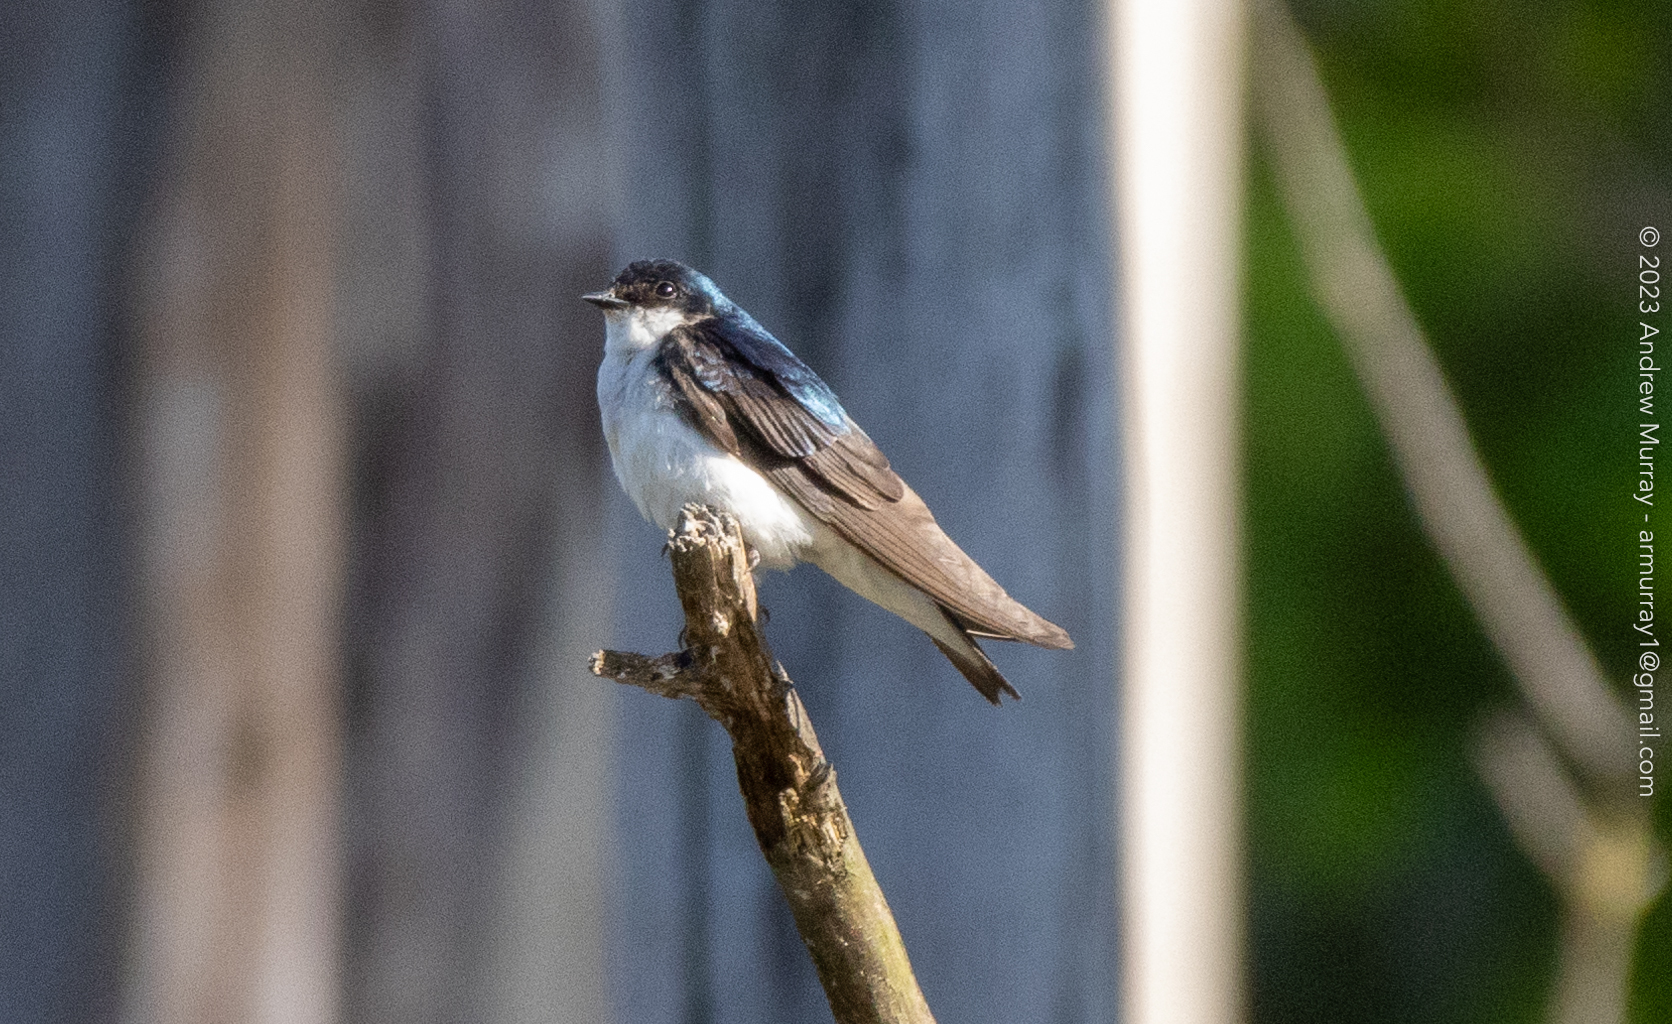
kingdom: Animalia
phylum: Chordata
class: Aves
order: Passeriformes
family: Hirundinidae
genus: Tachycineta
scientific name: Tachycineta bicolor
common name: Tree swallow
